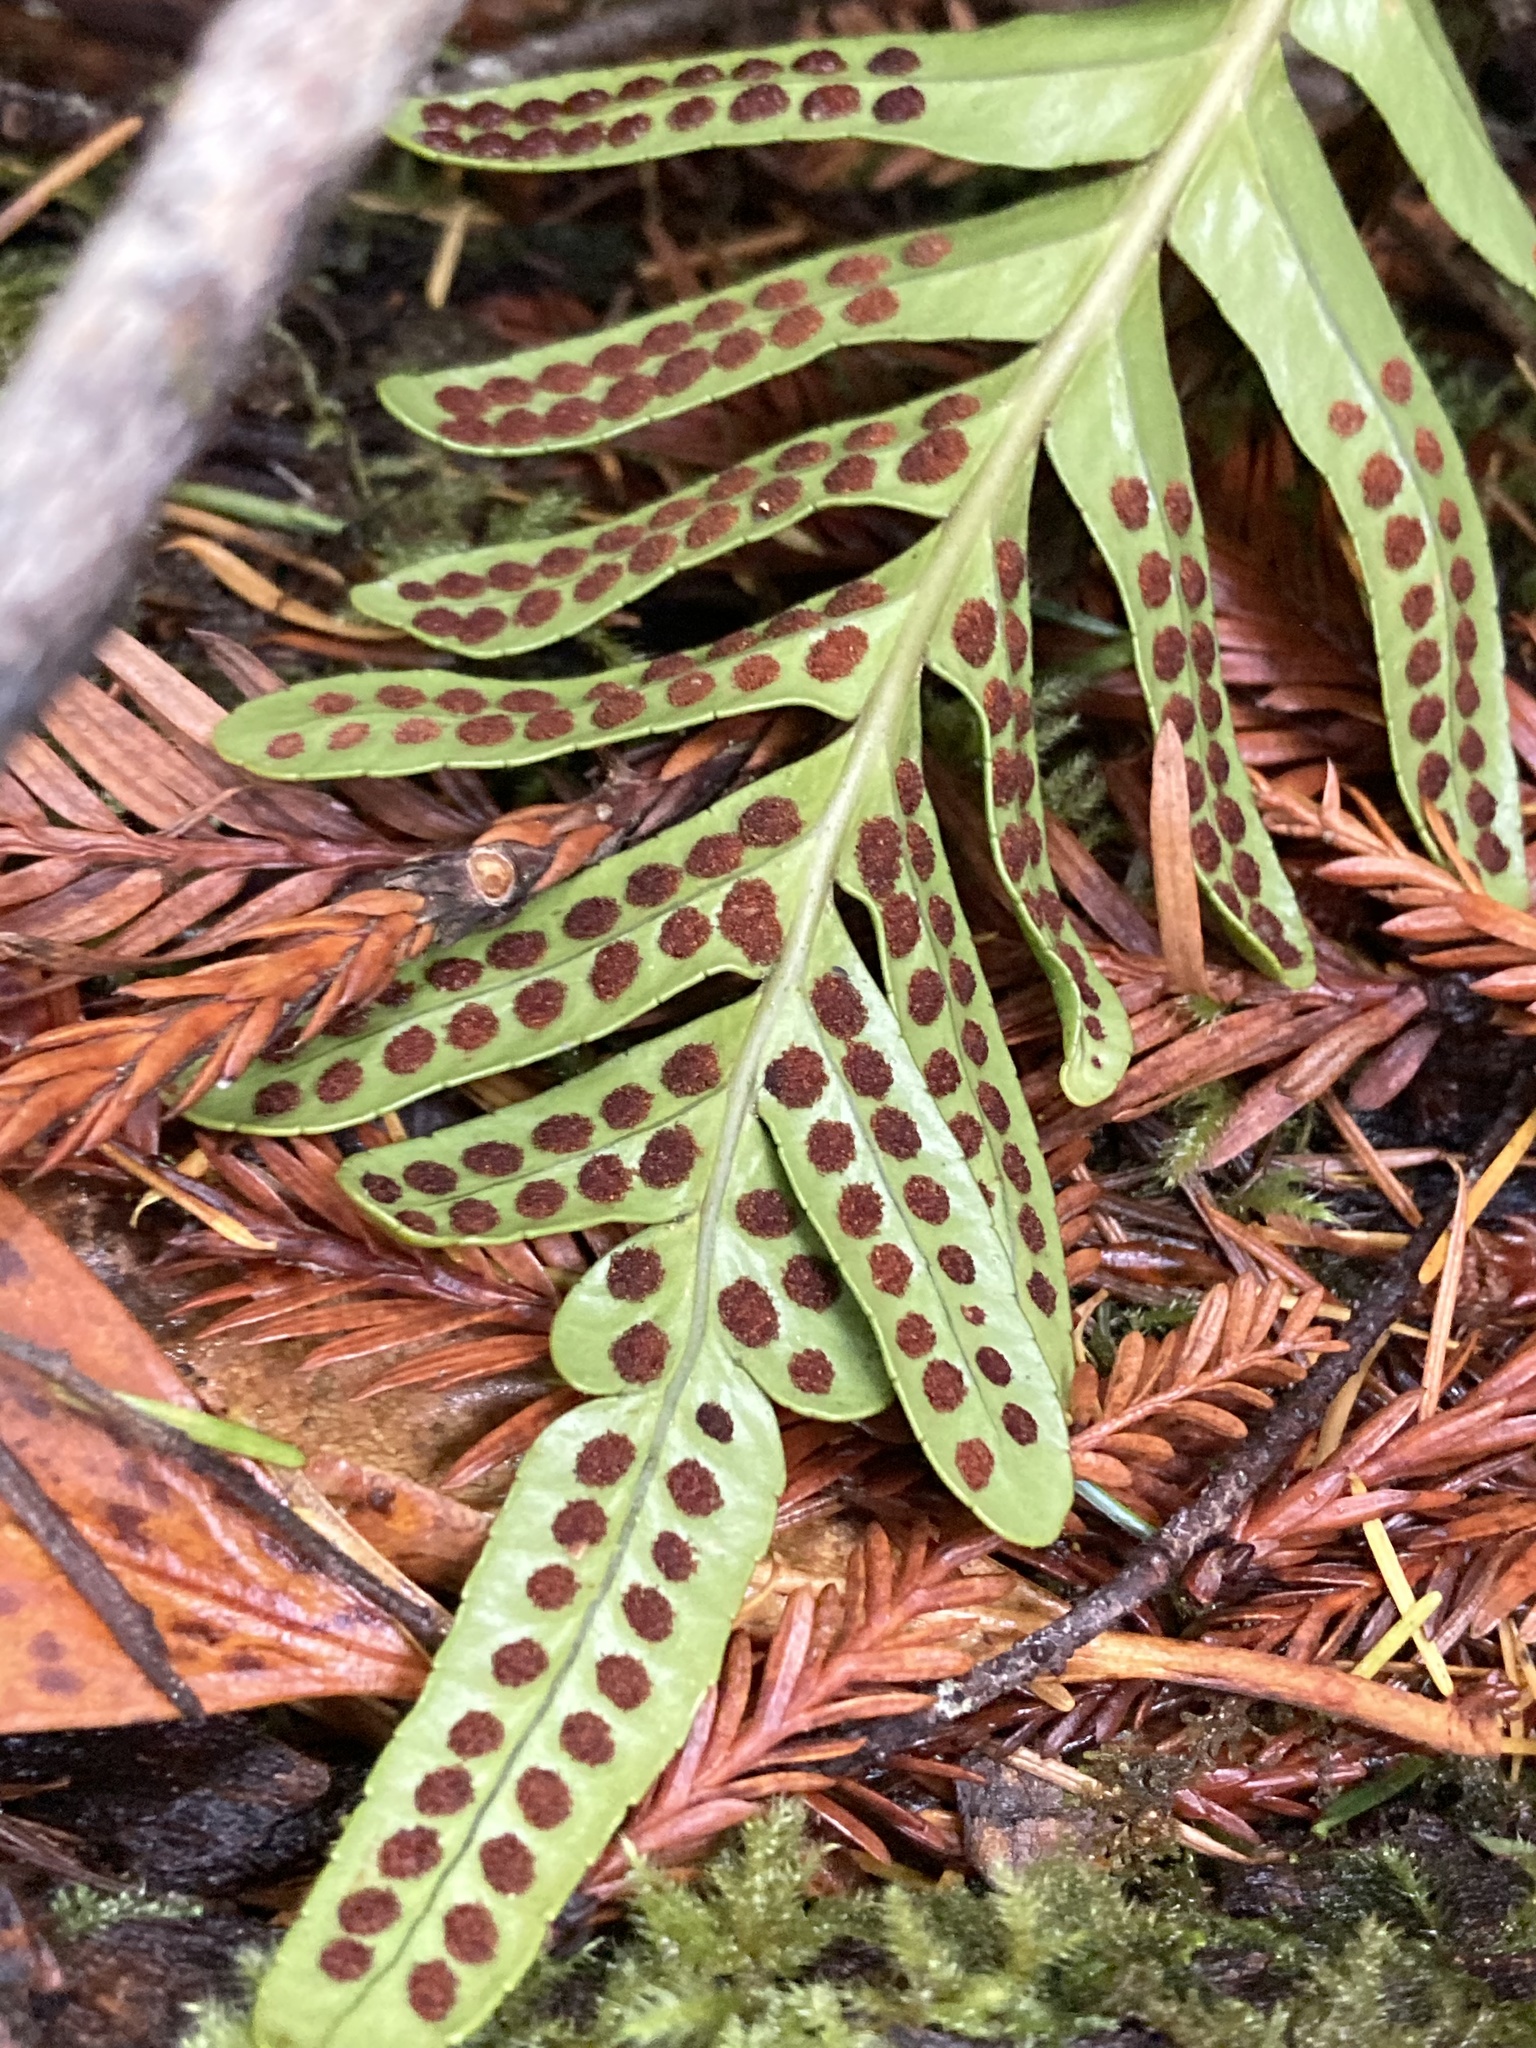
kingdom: Plantae
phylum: Tracheophyta
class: Polypodiopsida
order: Polypodiales
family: Polypodiaceae
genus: Polypodium
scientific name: Polypodium scouleri
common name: Scouler's polypody
